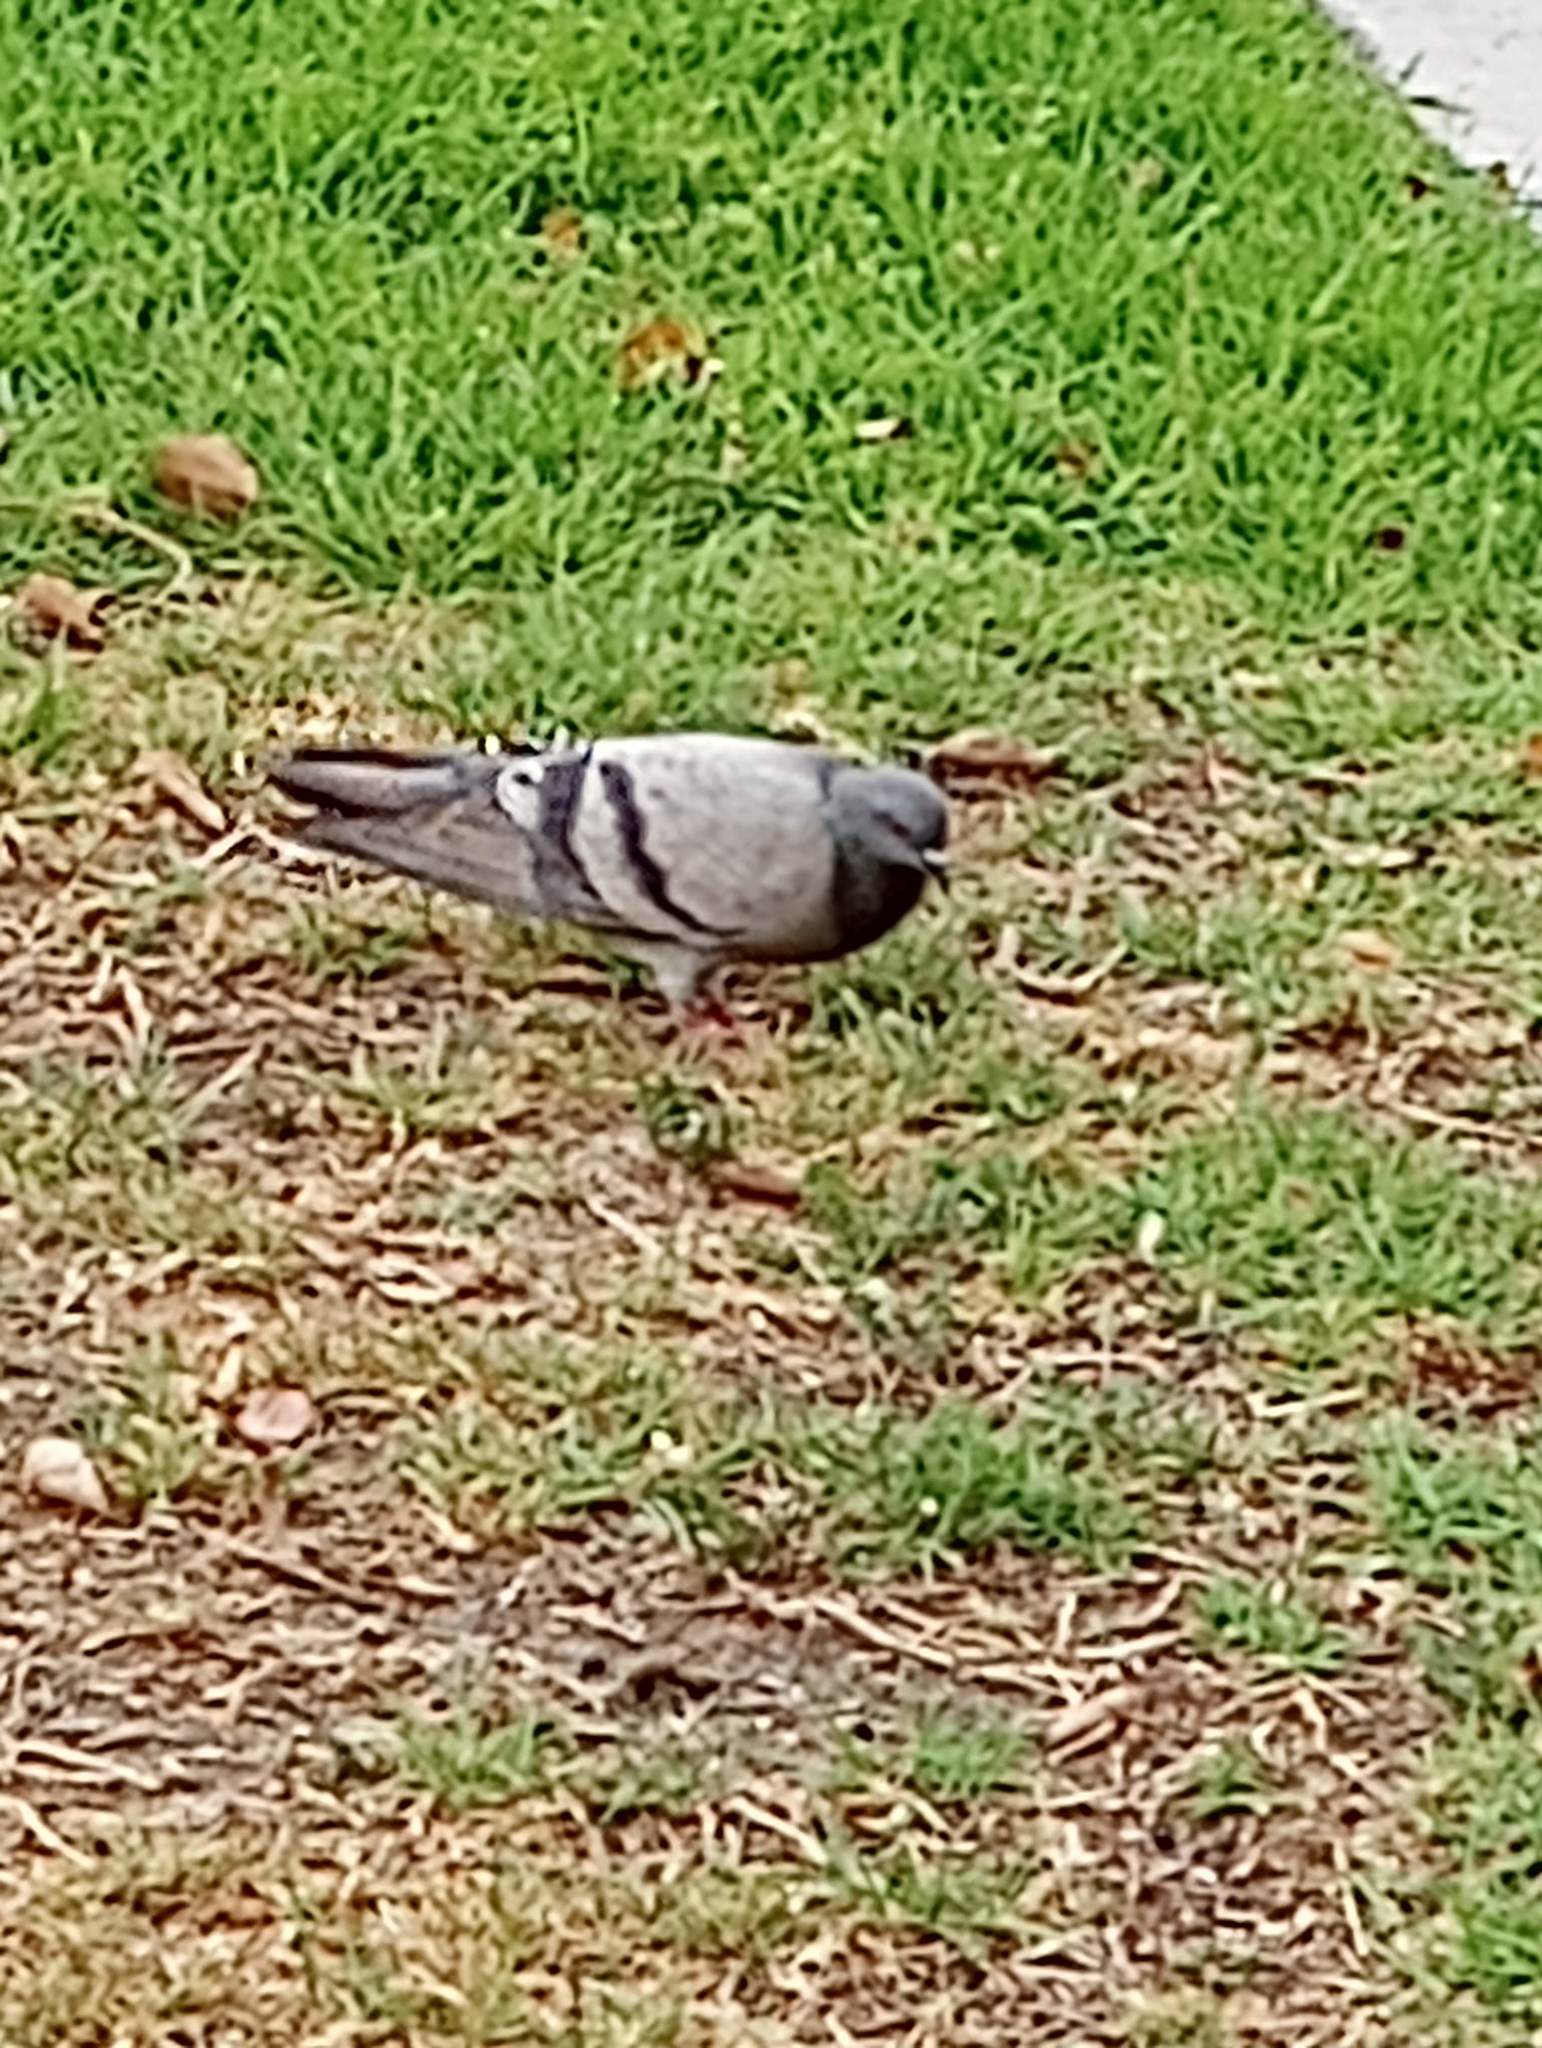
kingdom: Animalia
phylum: Chordata
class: Aves
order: Columbiformes
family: Columbidae
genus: Columba
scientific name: Columba livia
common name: Rock pigeon
